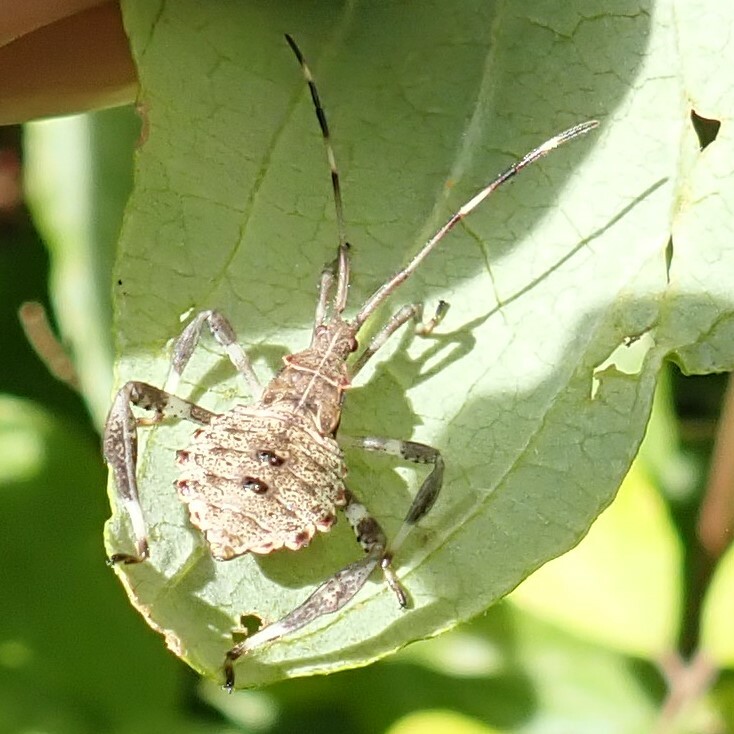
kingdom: Animalia
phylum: Arthropoda
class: Insecta
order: Hemiptera
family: Coreidae
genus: Acanthocephala
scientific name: Acanthocephala terminalis
